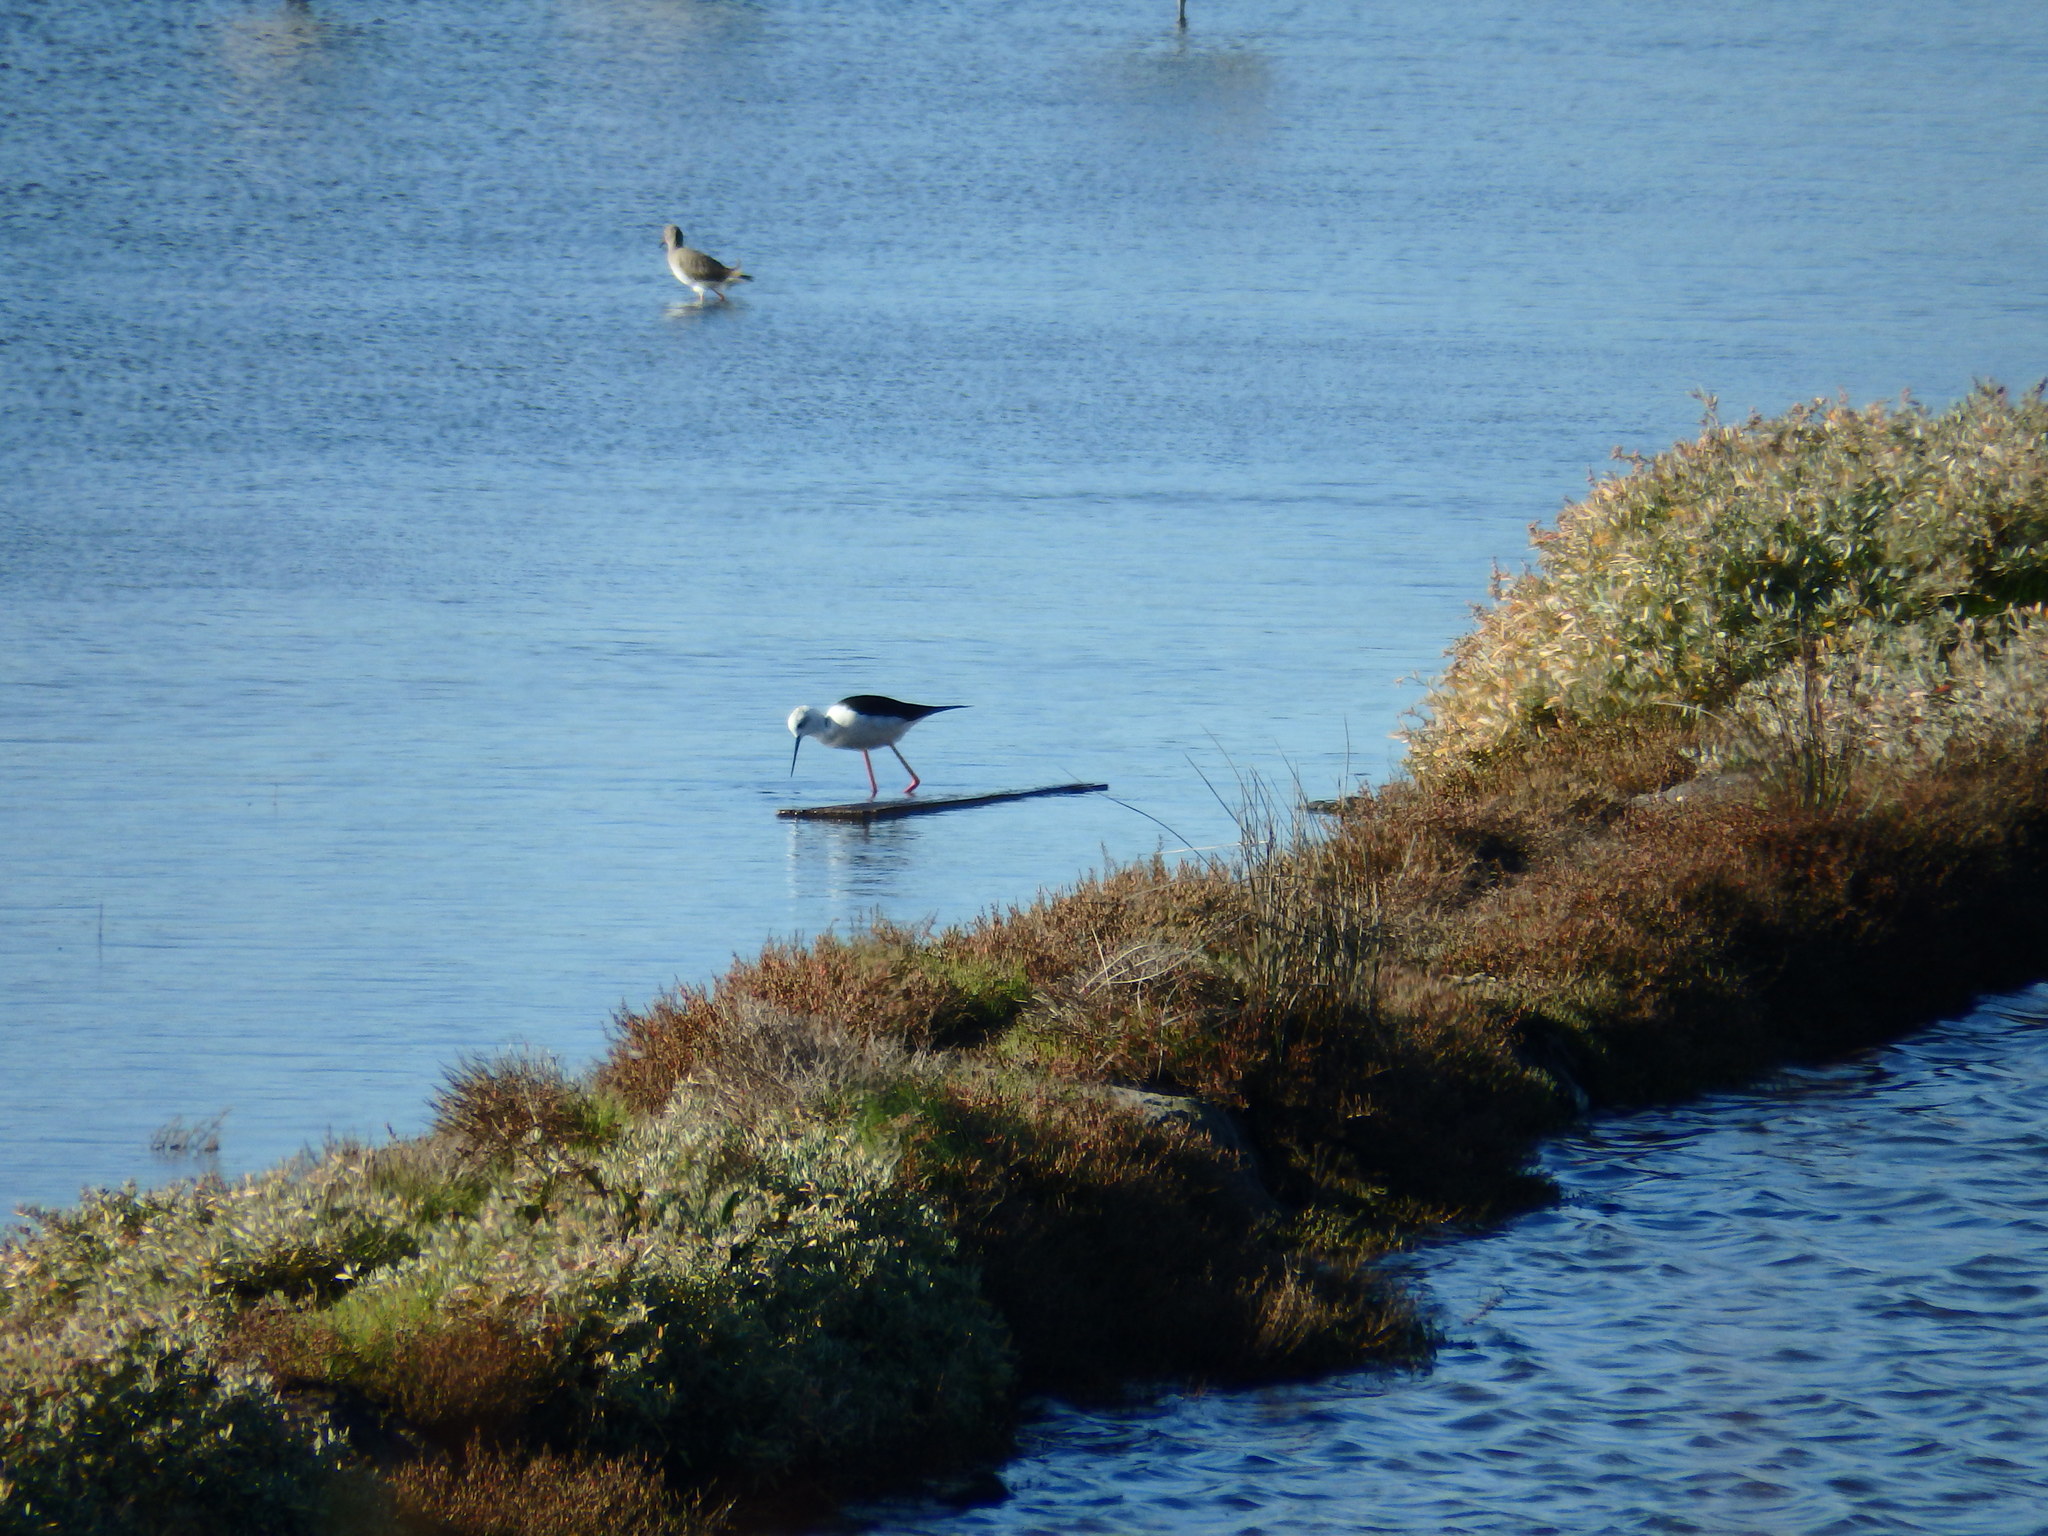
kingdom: Animalia
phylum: Chordata
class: Aves
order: Charadriiformes
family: Recurvirostridae
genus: Himantopus
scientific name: Himantopus himantopus
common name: Black-winged stilt
